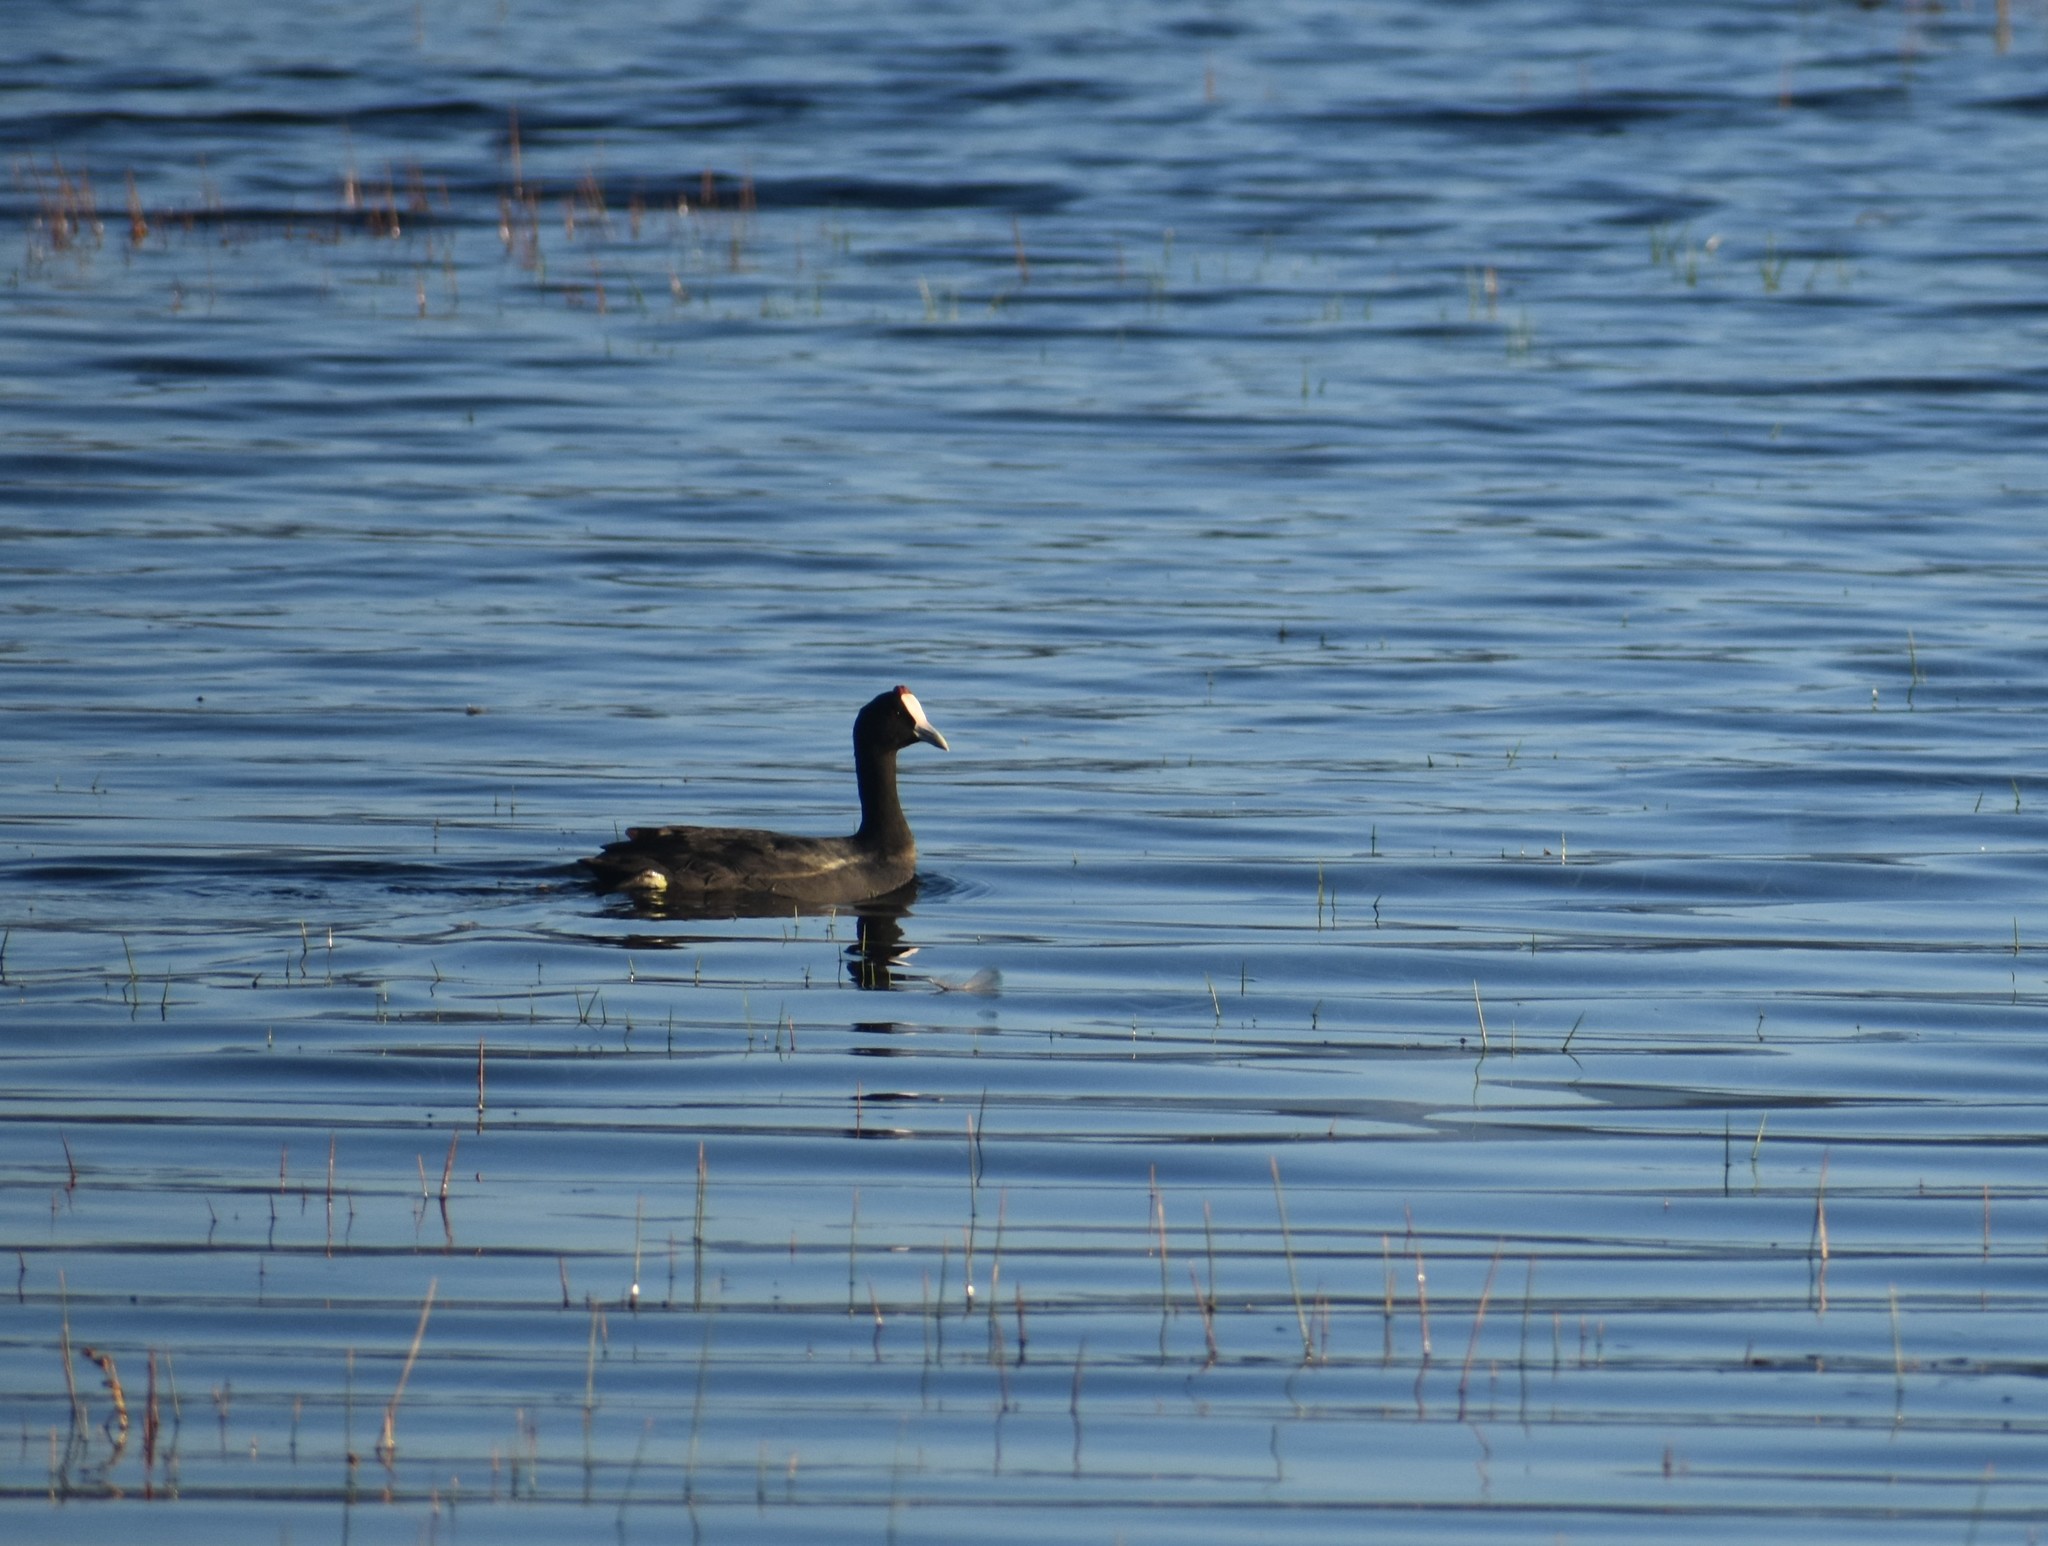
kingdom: Animalia
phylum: Chordata
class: Aves
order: Gruiformes
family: Rallidae
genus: Fulica
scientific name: Fulica cristata
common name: Red-knobbed coot
